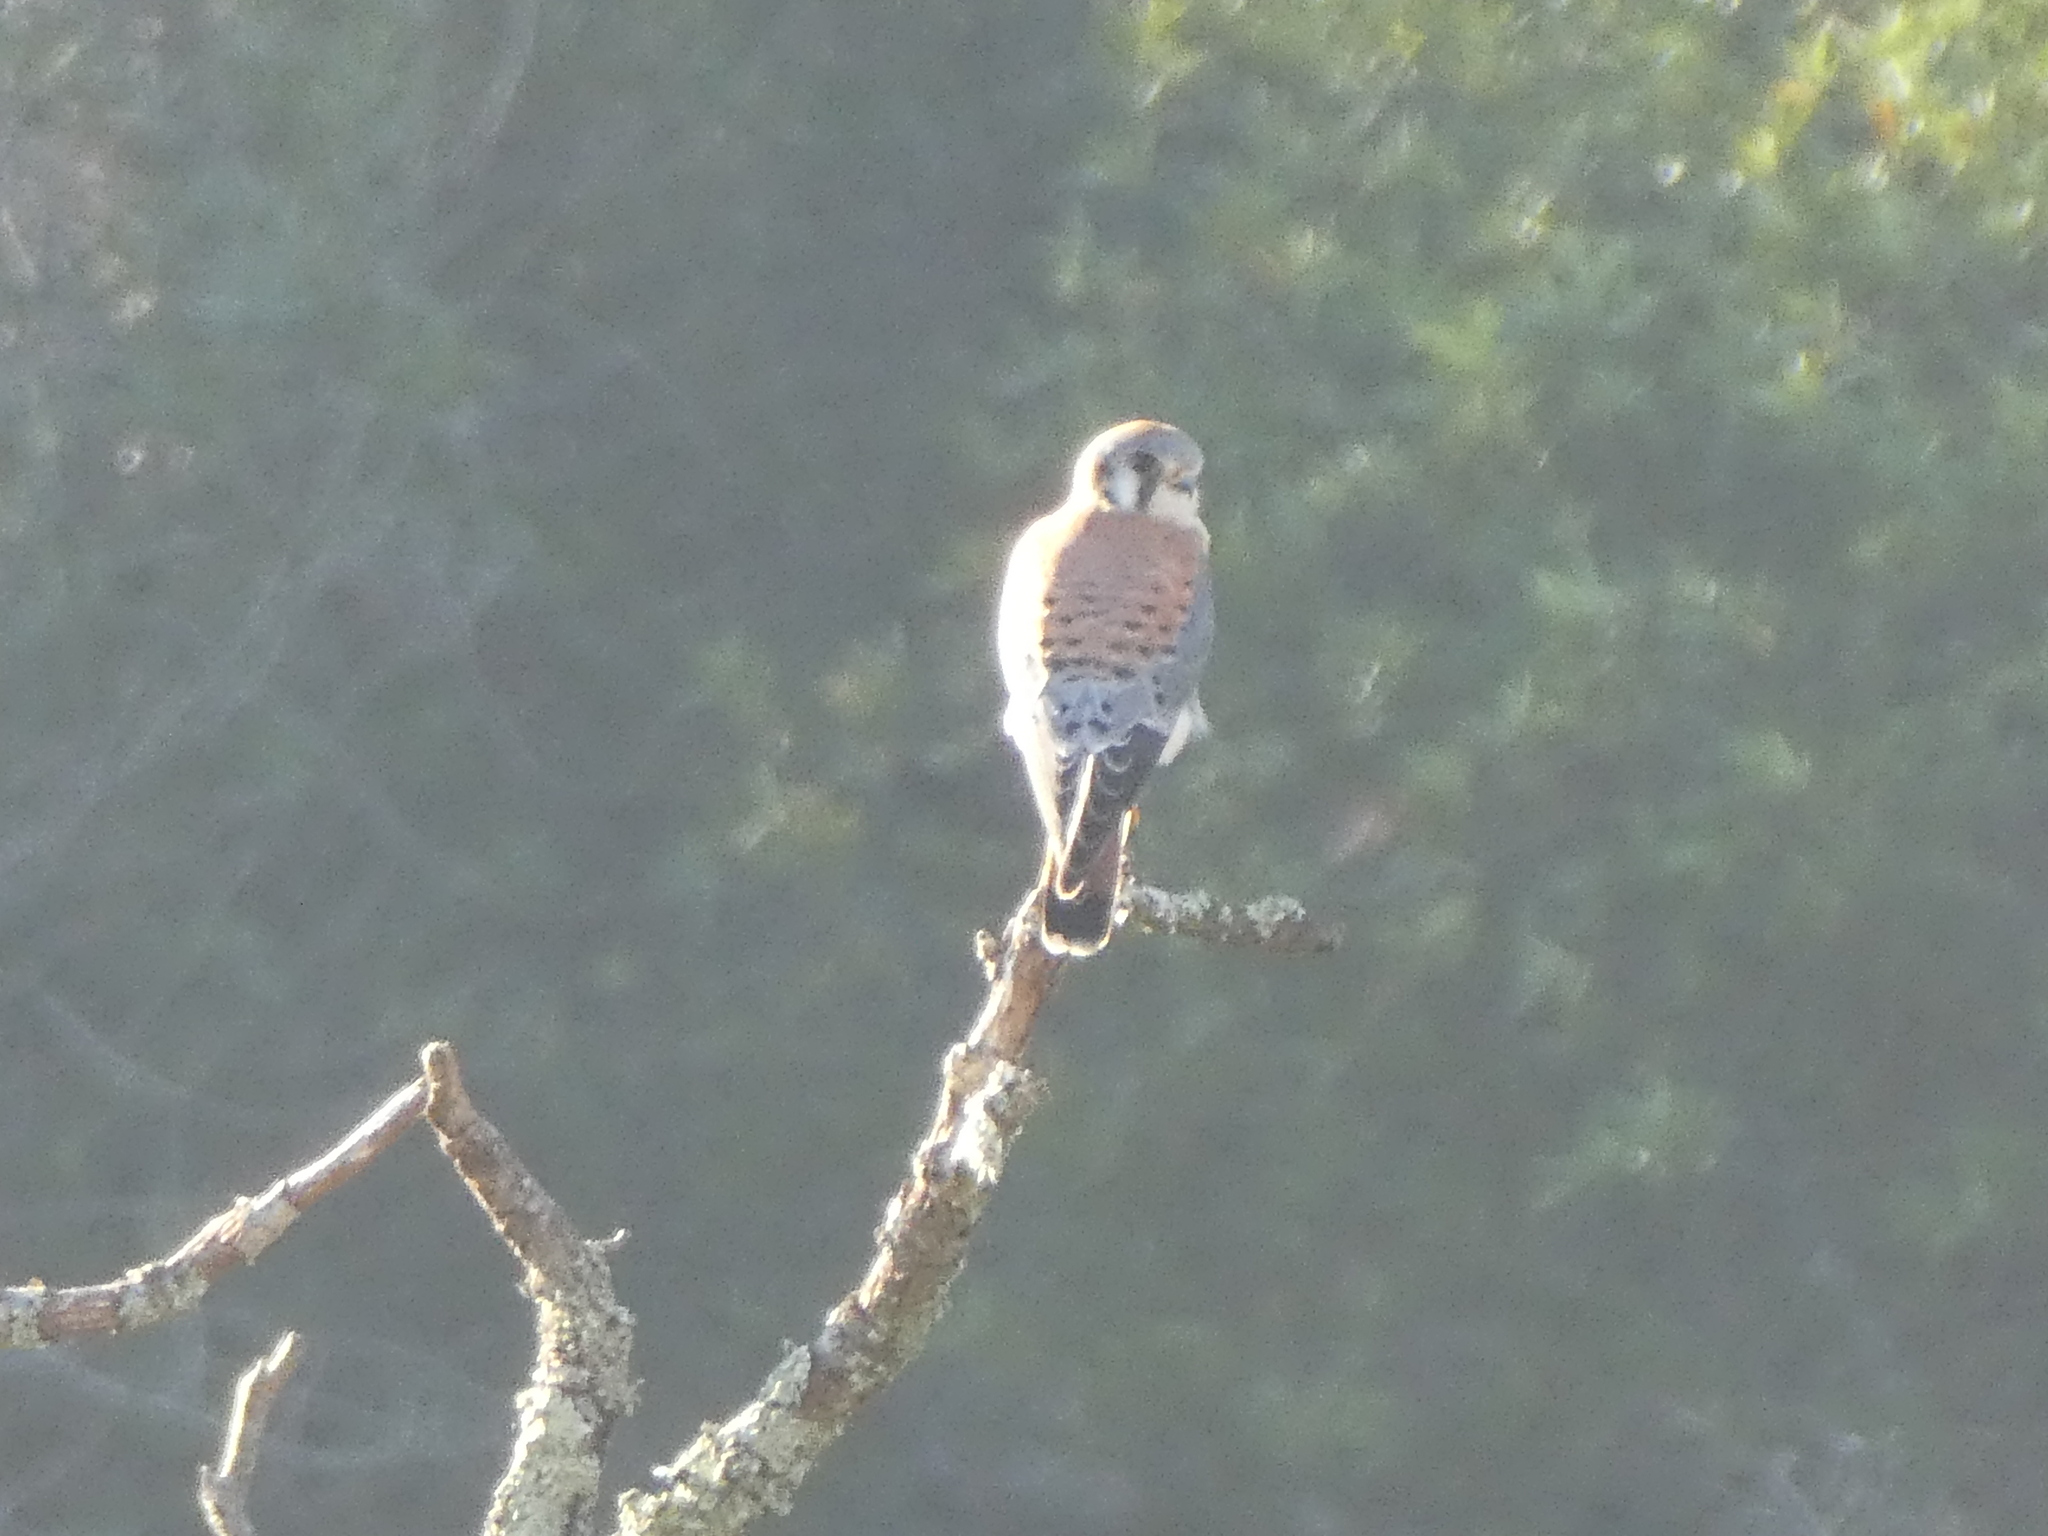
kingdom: Animalia
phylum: Chordata
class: Aves
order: Falconiformes
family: Falconidae
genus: Falco
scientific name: Falco sparverius
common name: American kestrel
